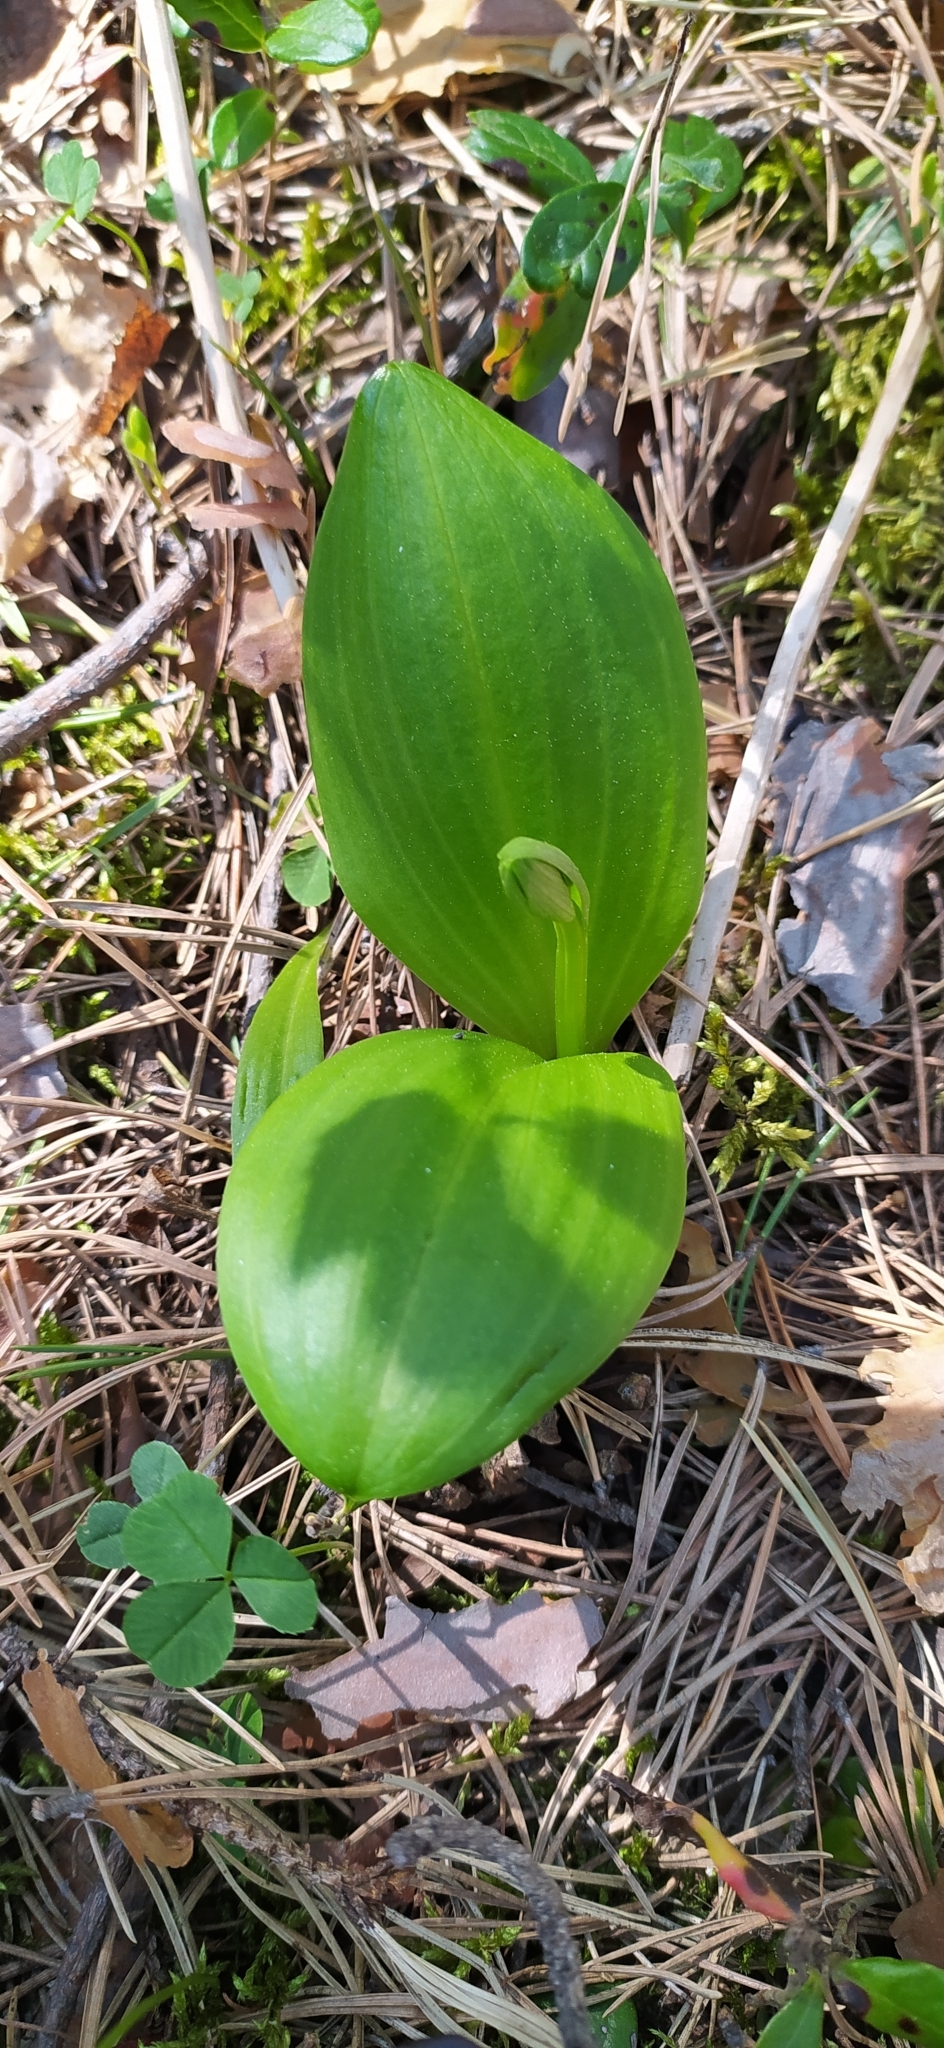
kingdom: Plantae
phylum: Tracheophyta
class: Liliopsida
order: Asparagales
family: Orchidaceae
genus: Platanthera
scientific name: Platanthera bifolia
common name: Lesser butterfly-orchid
